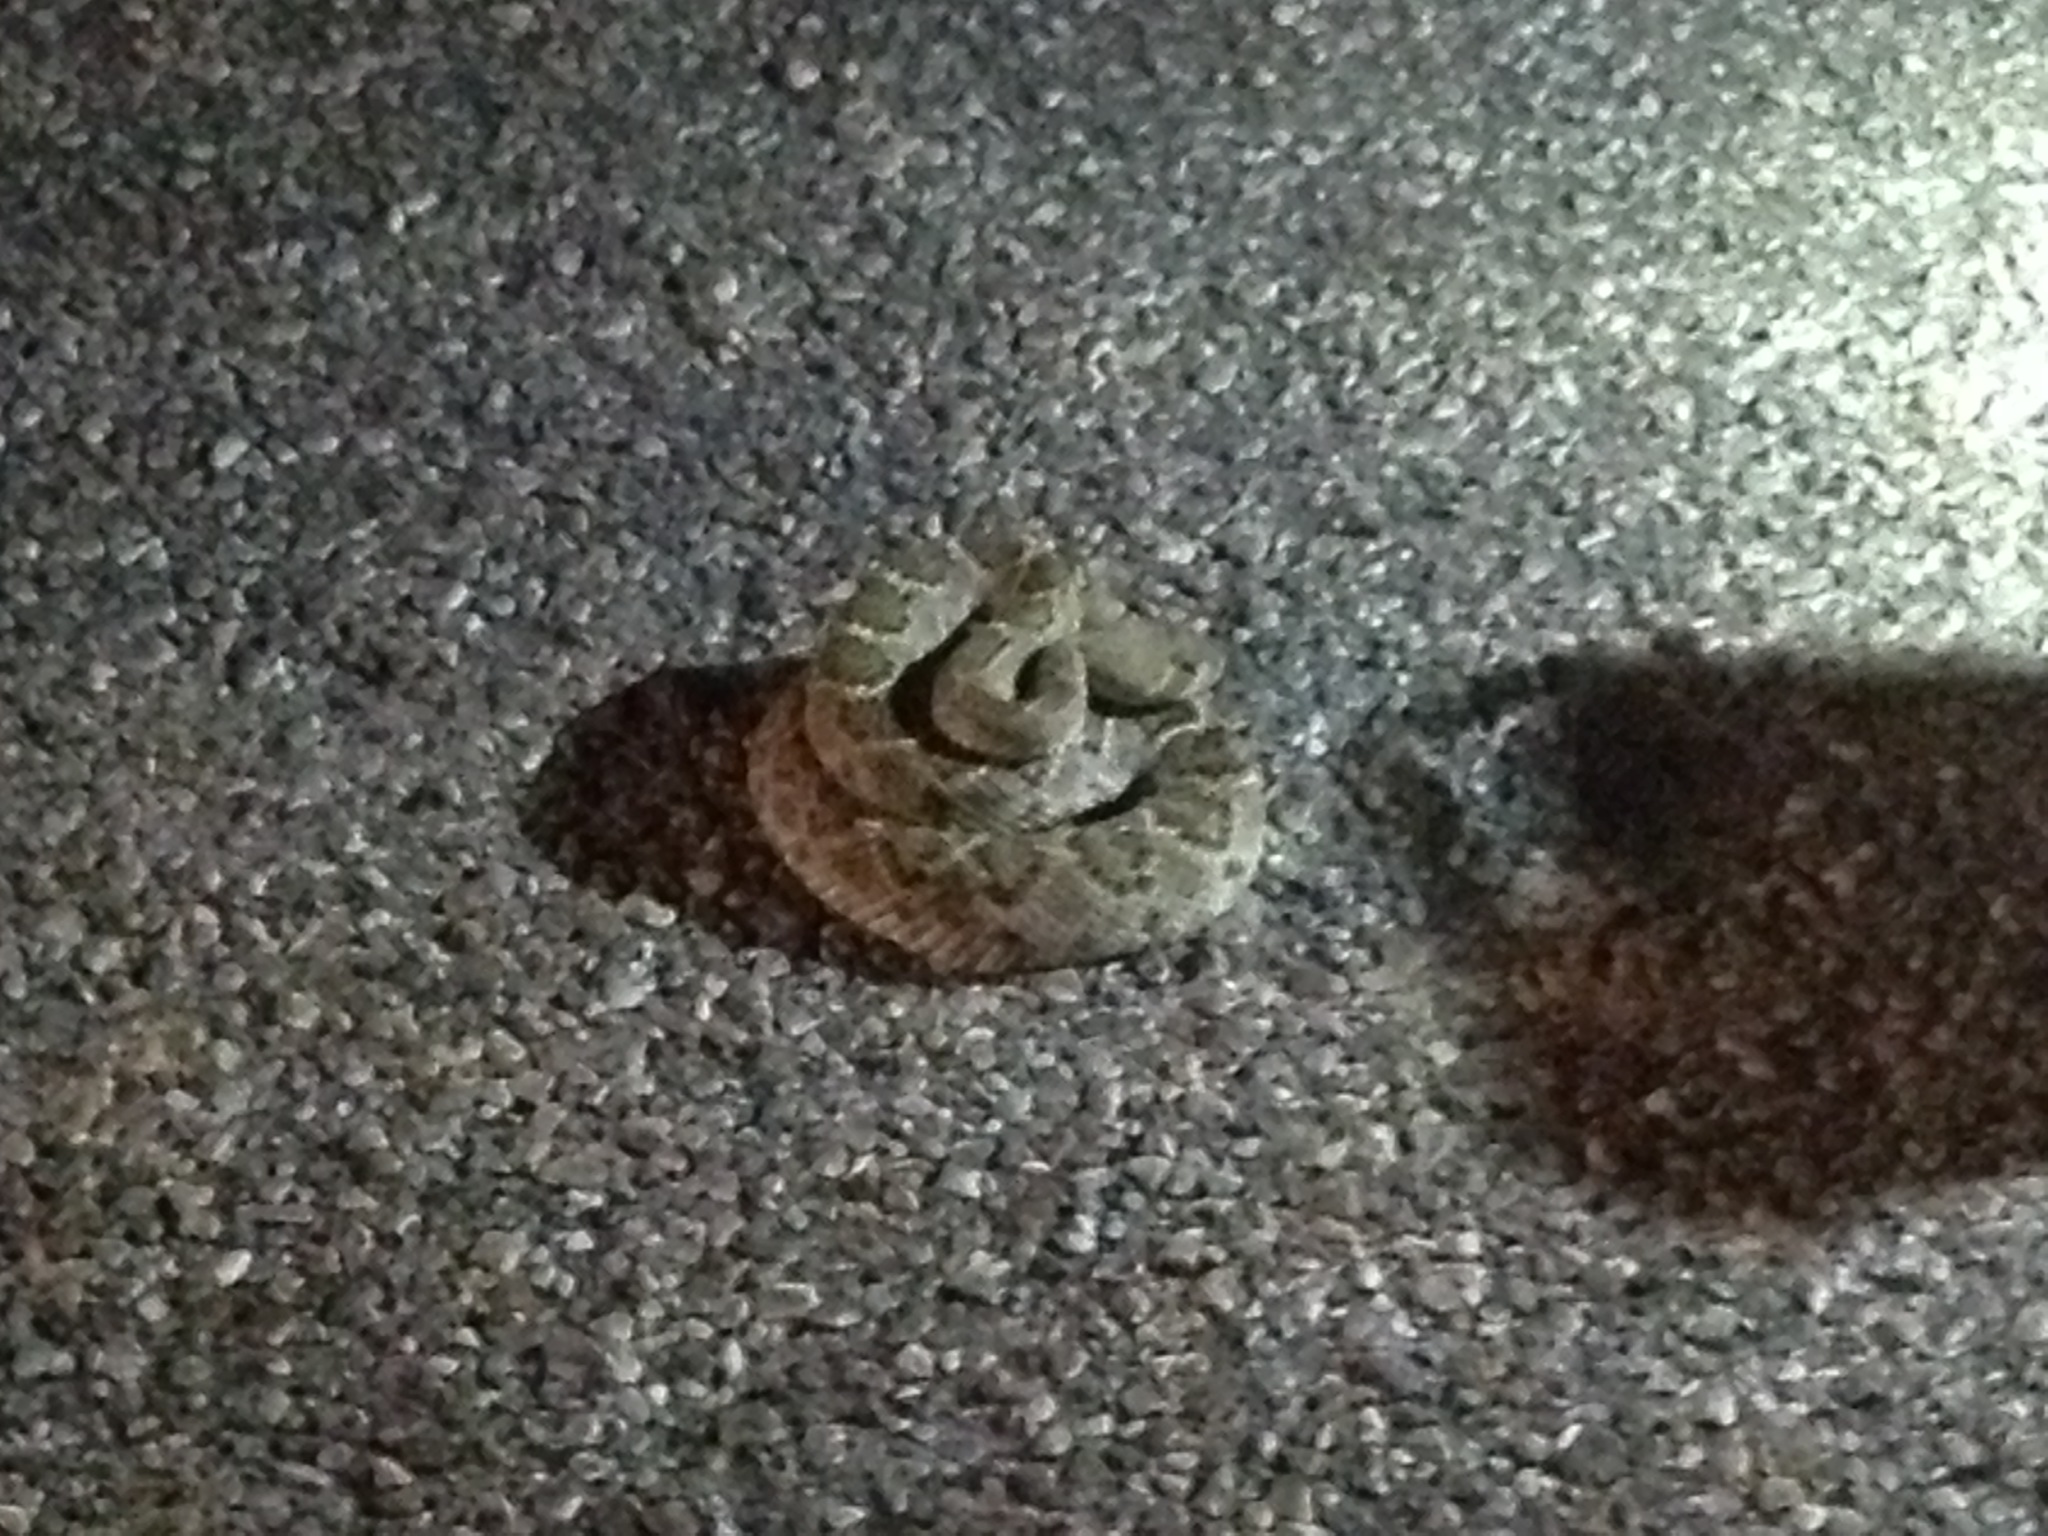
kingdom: Animalia
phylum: Chordata
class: Squamata
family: Viperidae
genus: Crotalus
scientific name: Crotalus atrox
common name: Western diamond-backed rattlesnake
